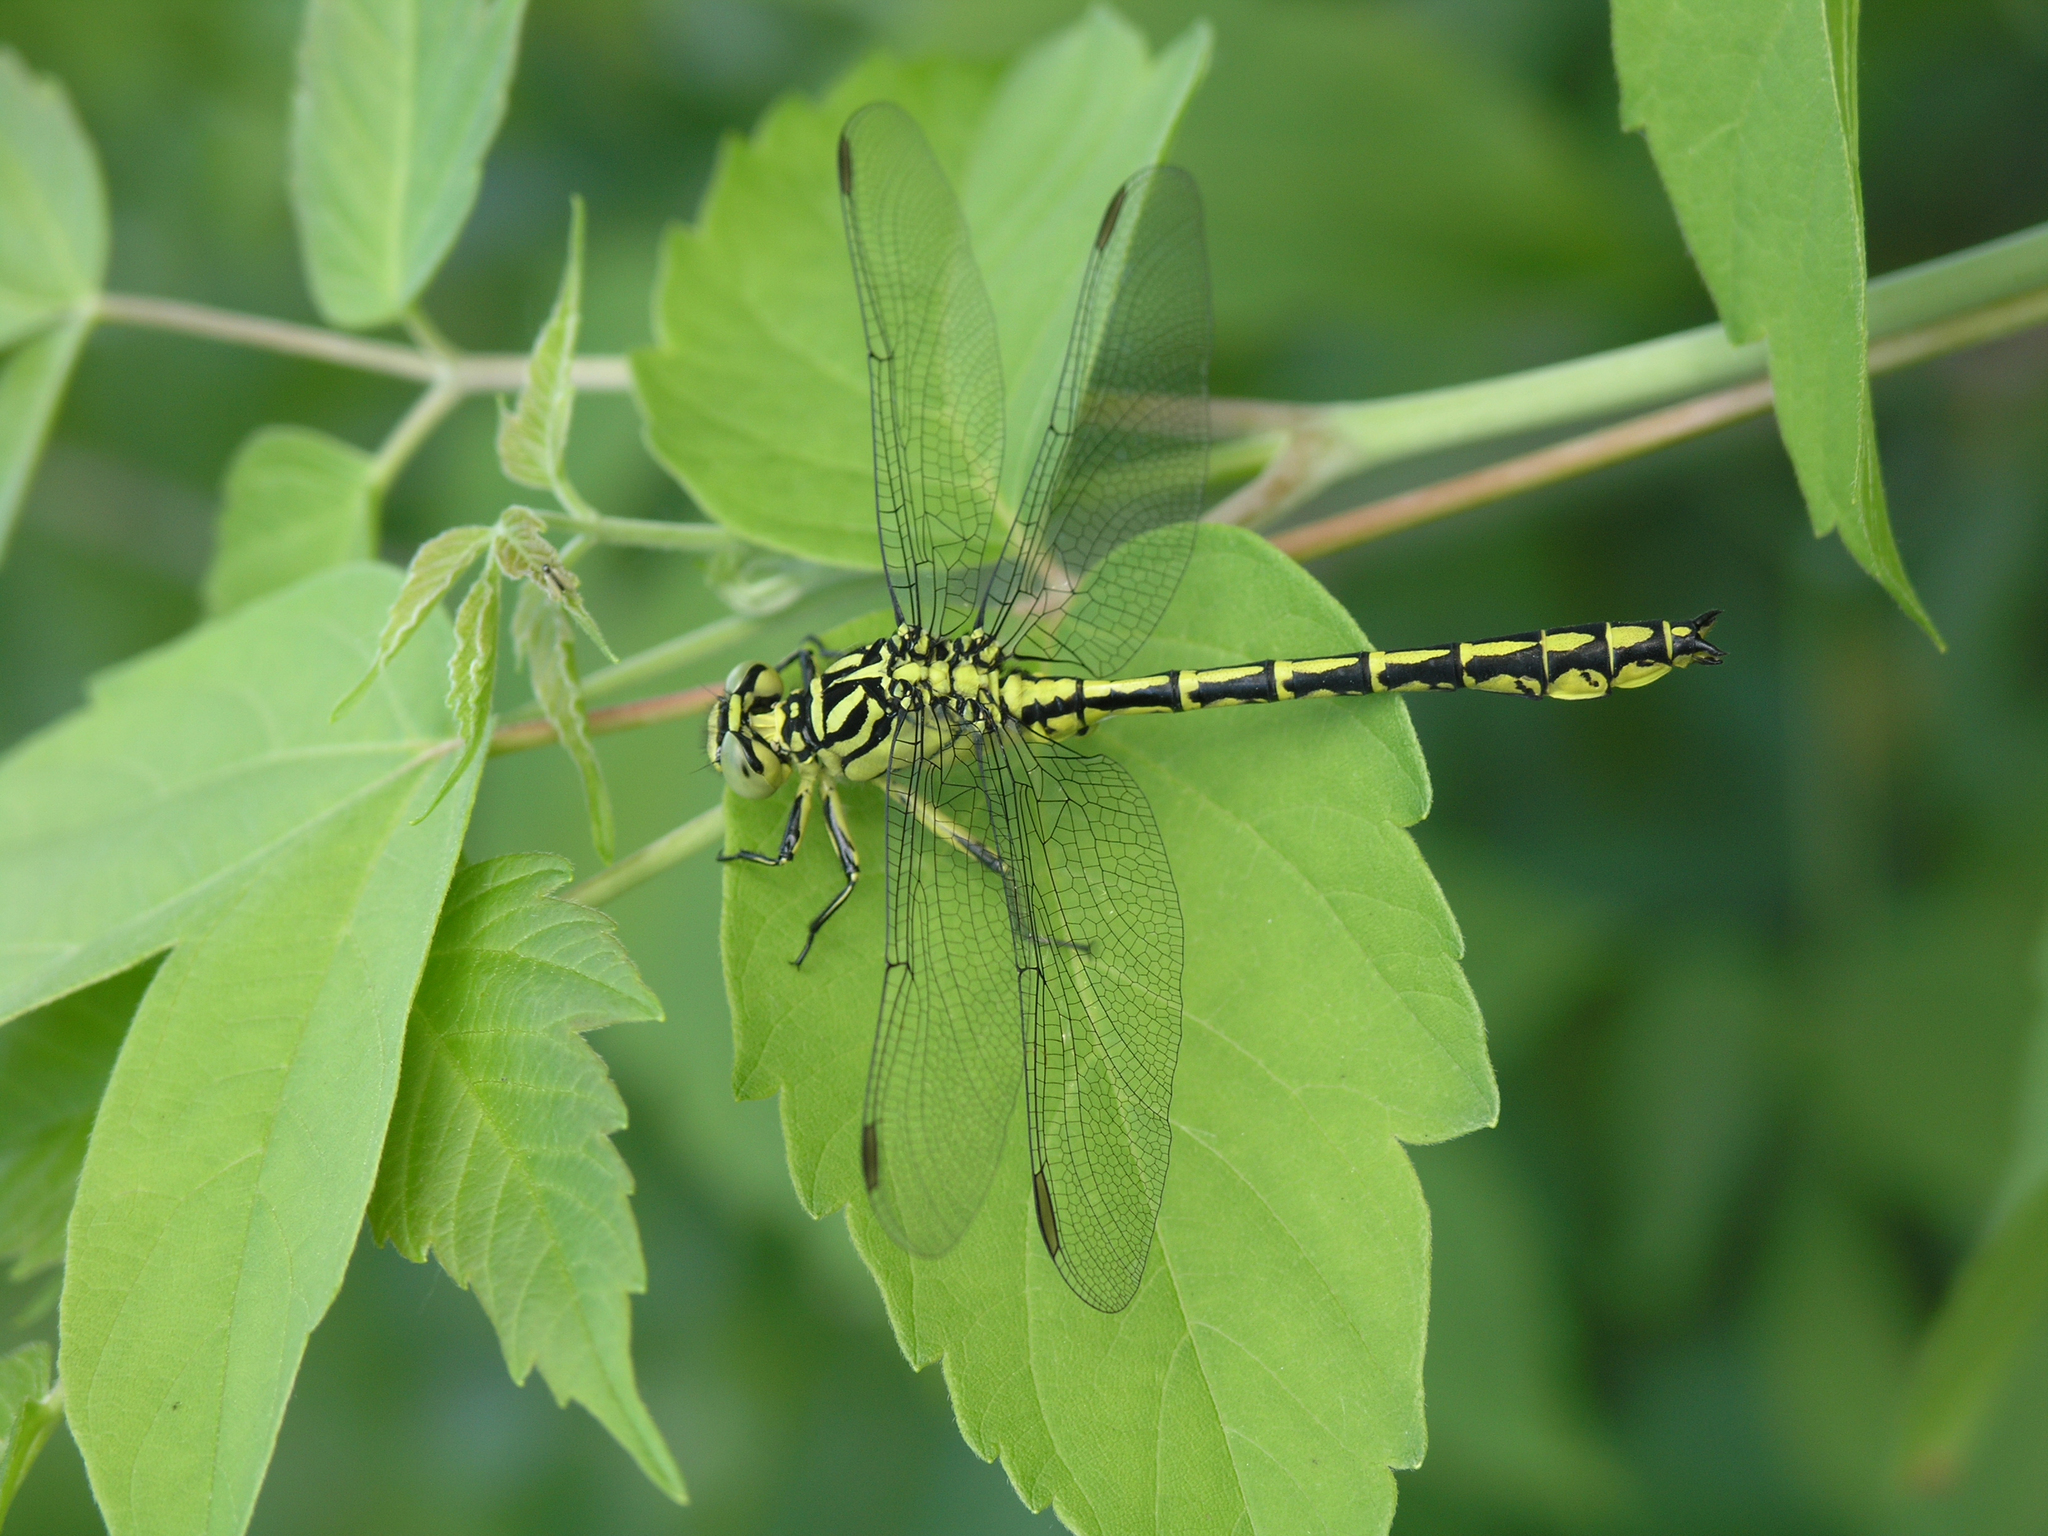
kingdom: Plantae
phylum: Tracheophyta
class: Magnoliopsida
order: Sapindales
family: Sapindaceae
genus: Acer
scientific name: Acer negundo
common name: Ashleaf maple
